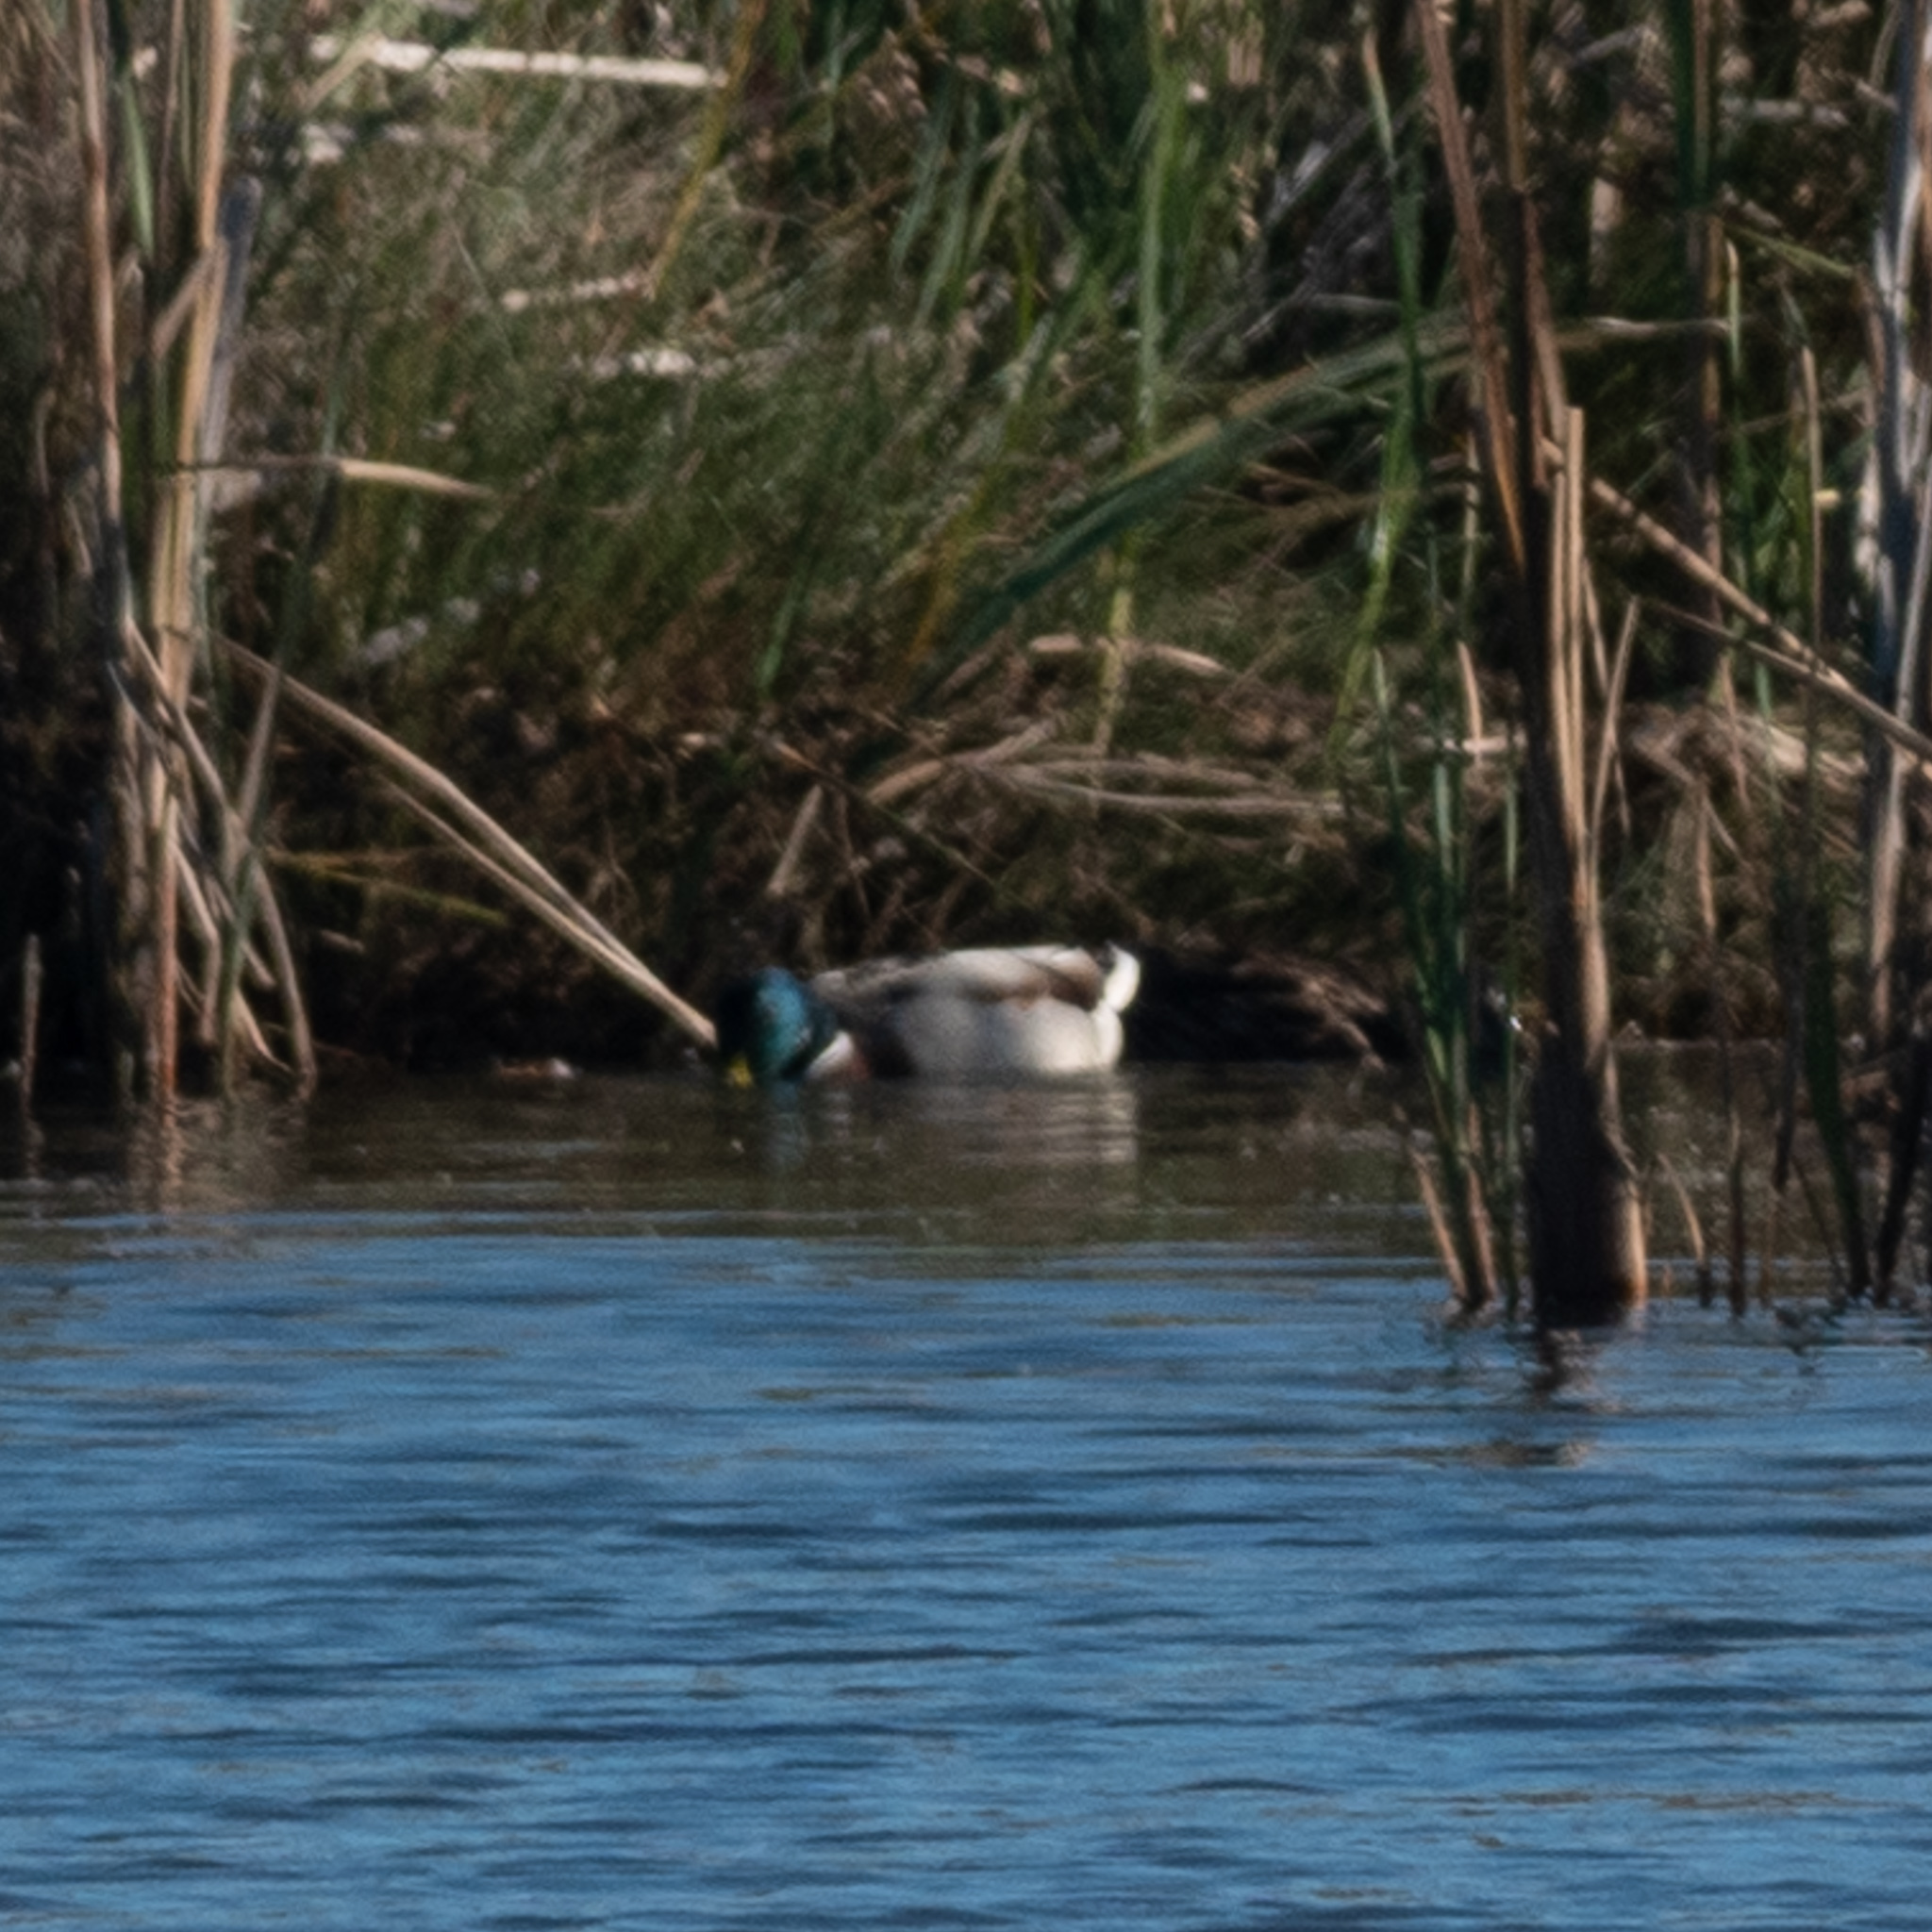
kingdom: Animalia
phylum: Chordata
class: Aves
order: Anseriformes
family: Anatidae
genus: Anas
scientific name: Anas platyrhynchos
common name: Mallard
